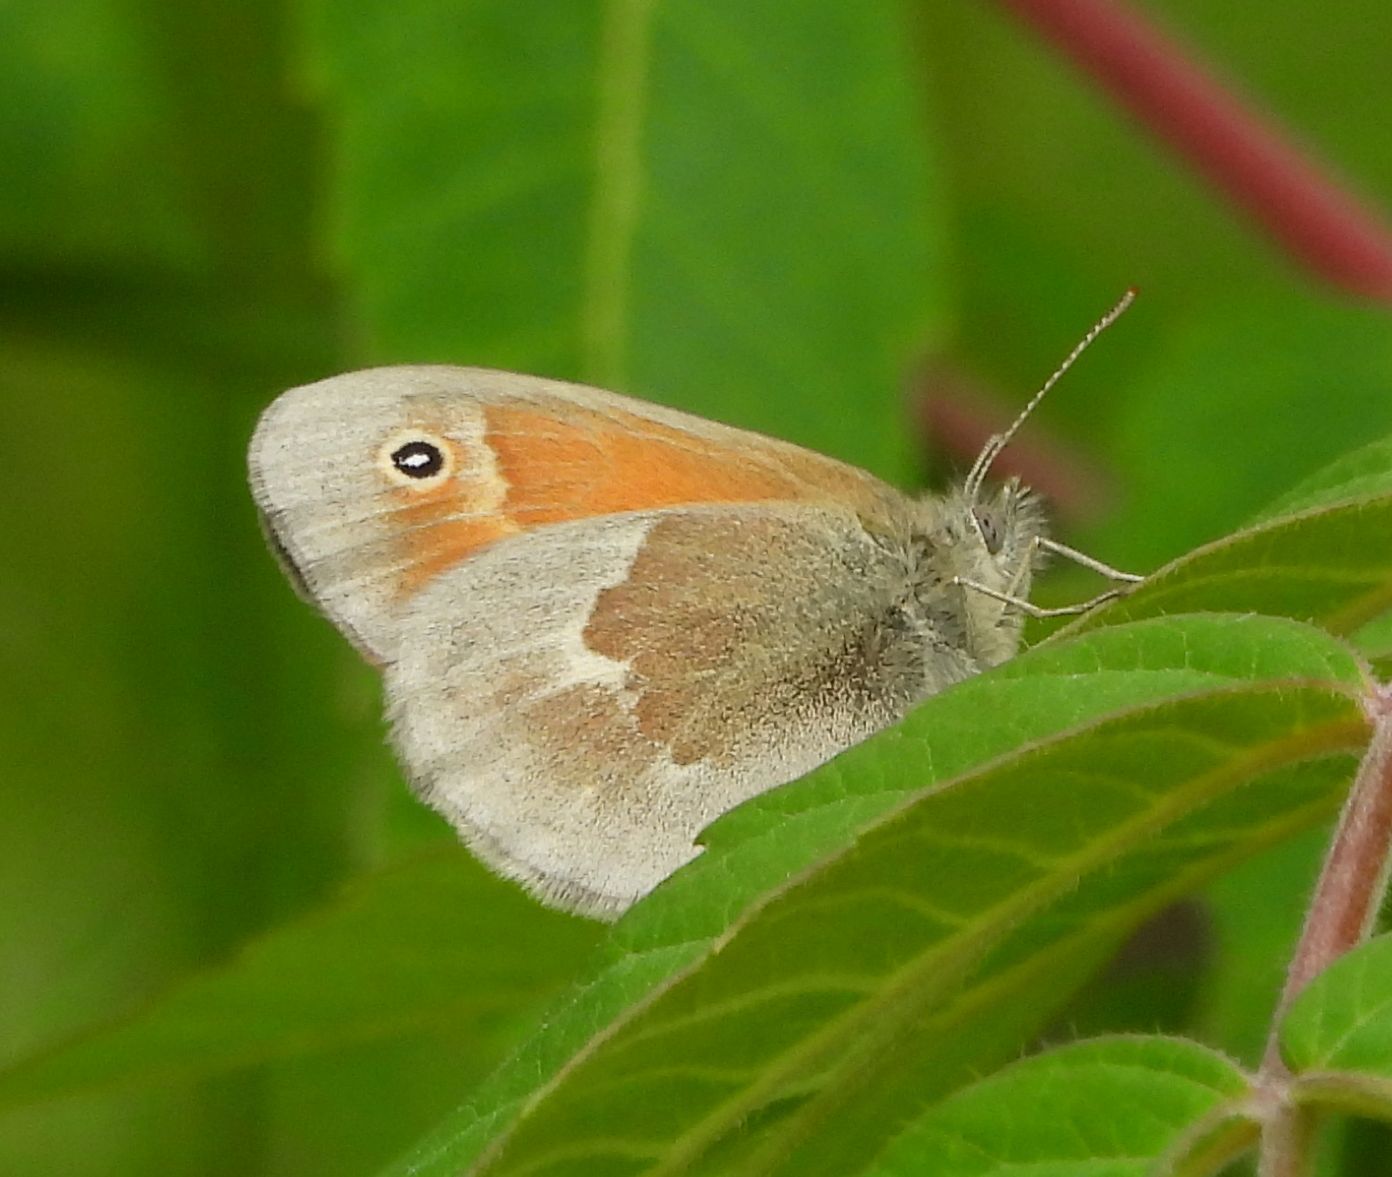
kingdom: Animalia
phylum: Arthropoda
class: Insecta
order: Lepidoptera
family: Nymphalidae
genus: Coenonympha
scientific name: Coenonympha california
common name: Common ringlet
